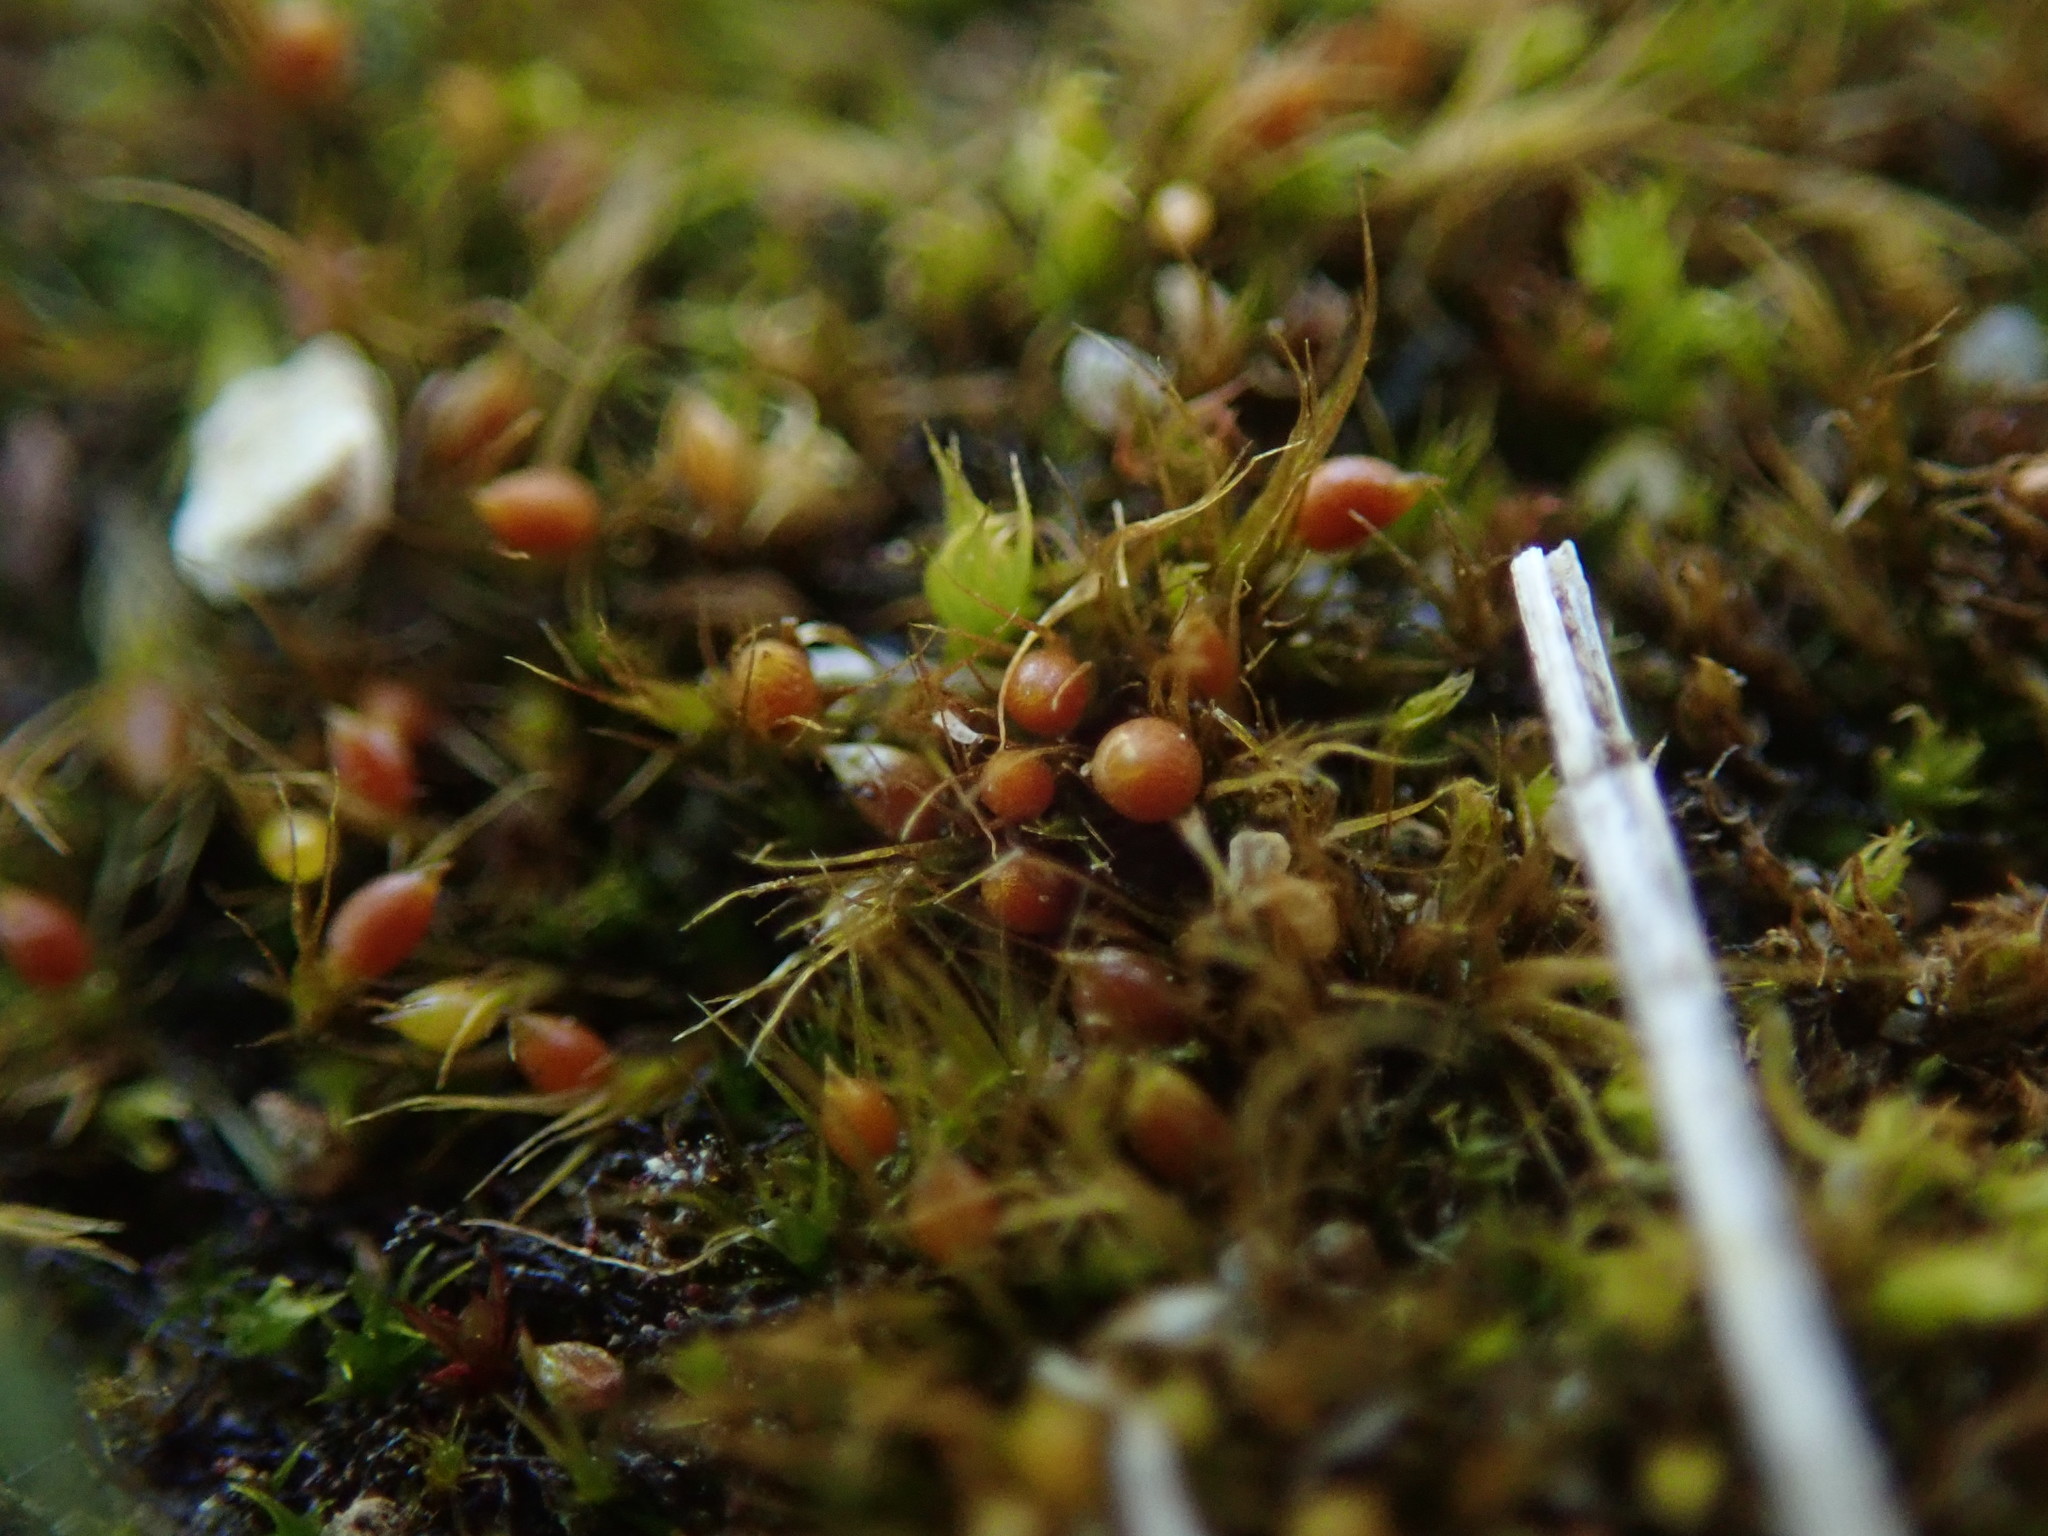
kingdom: Plantae
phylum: Bryophyta
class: Bryopsida
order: Dicranales
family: Ditrichaceae
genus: Pleuridium
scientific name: Pleuridium acuminatum
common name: Taper-leaved earth-moss
